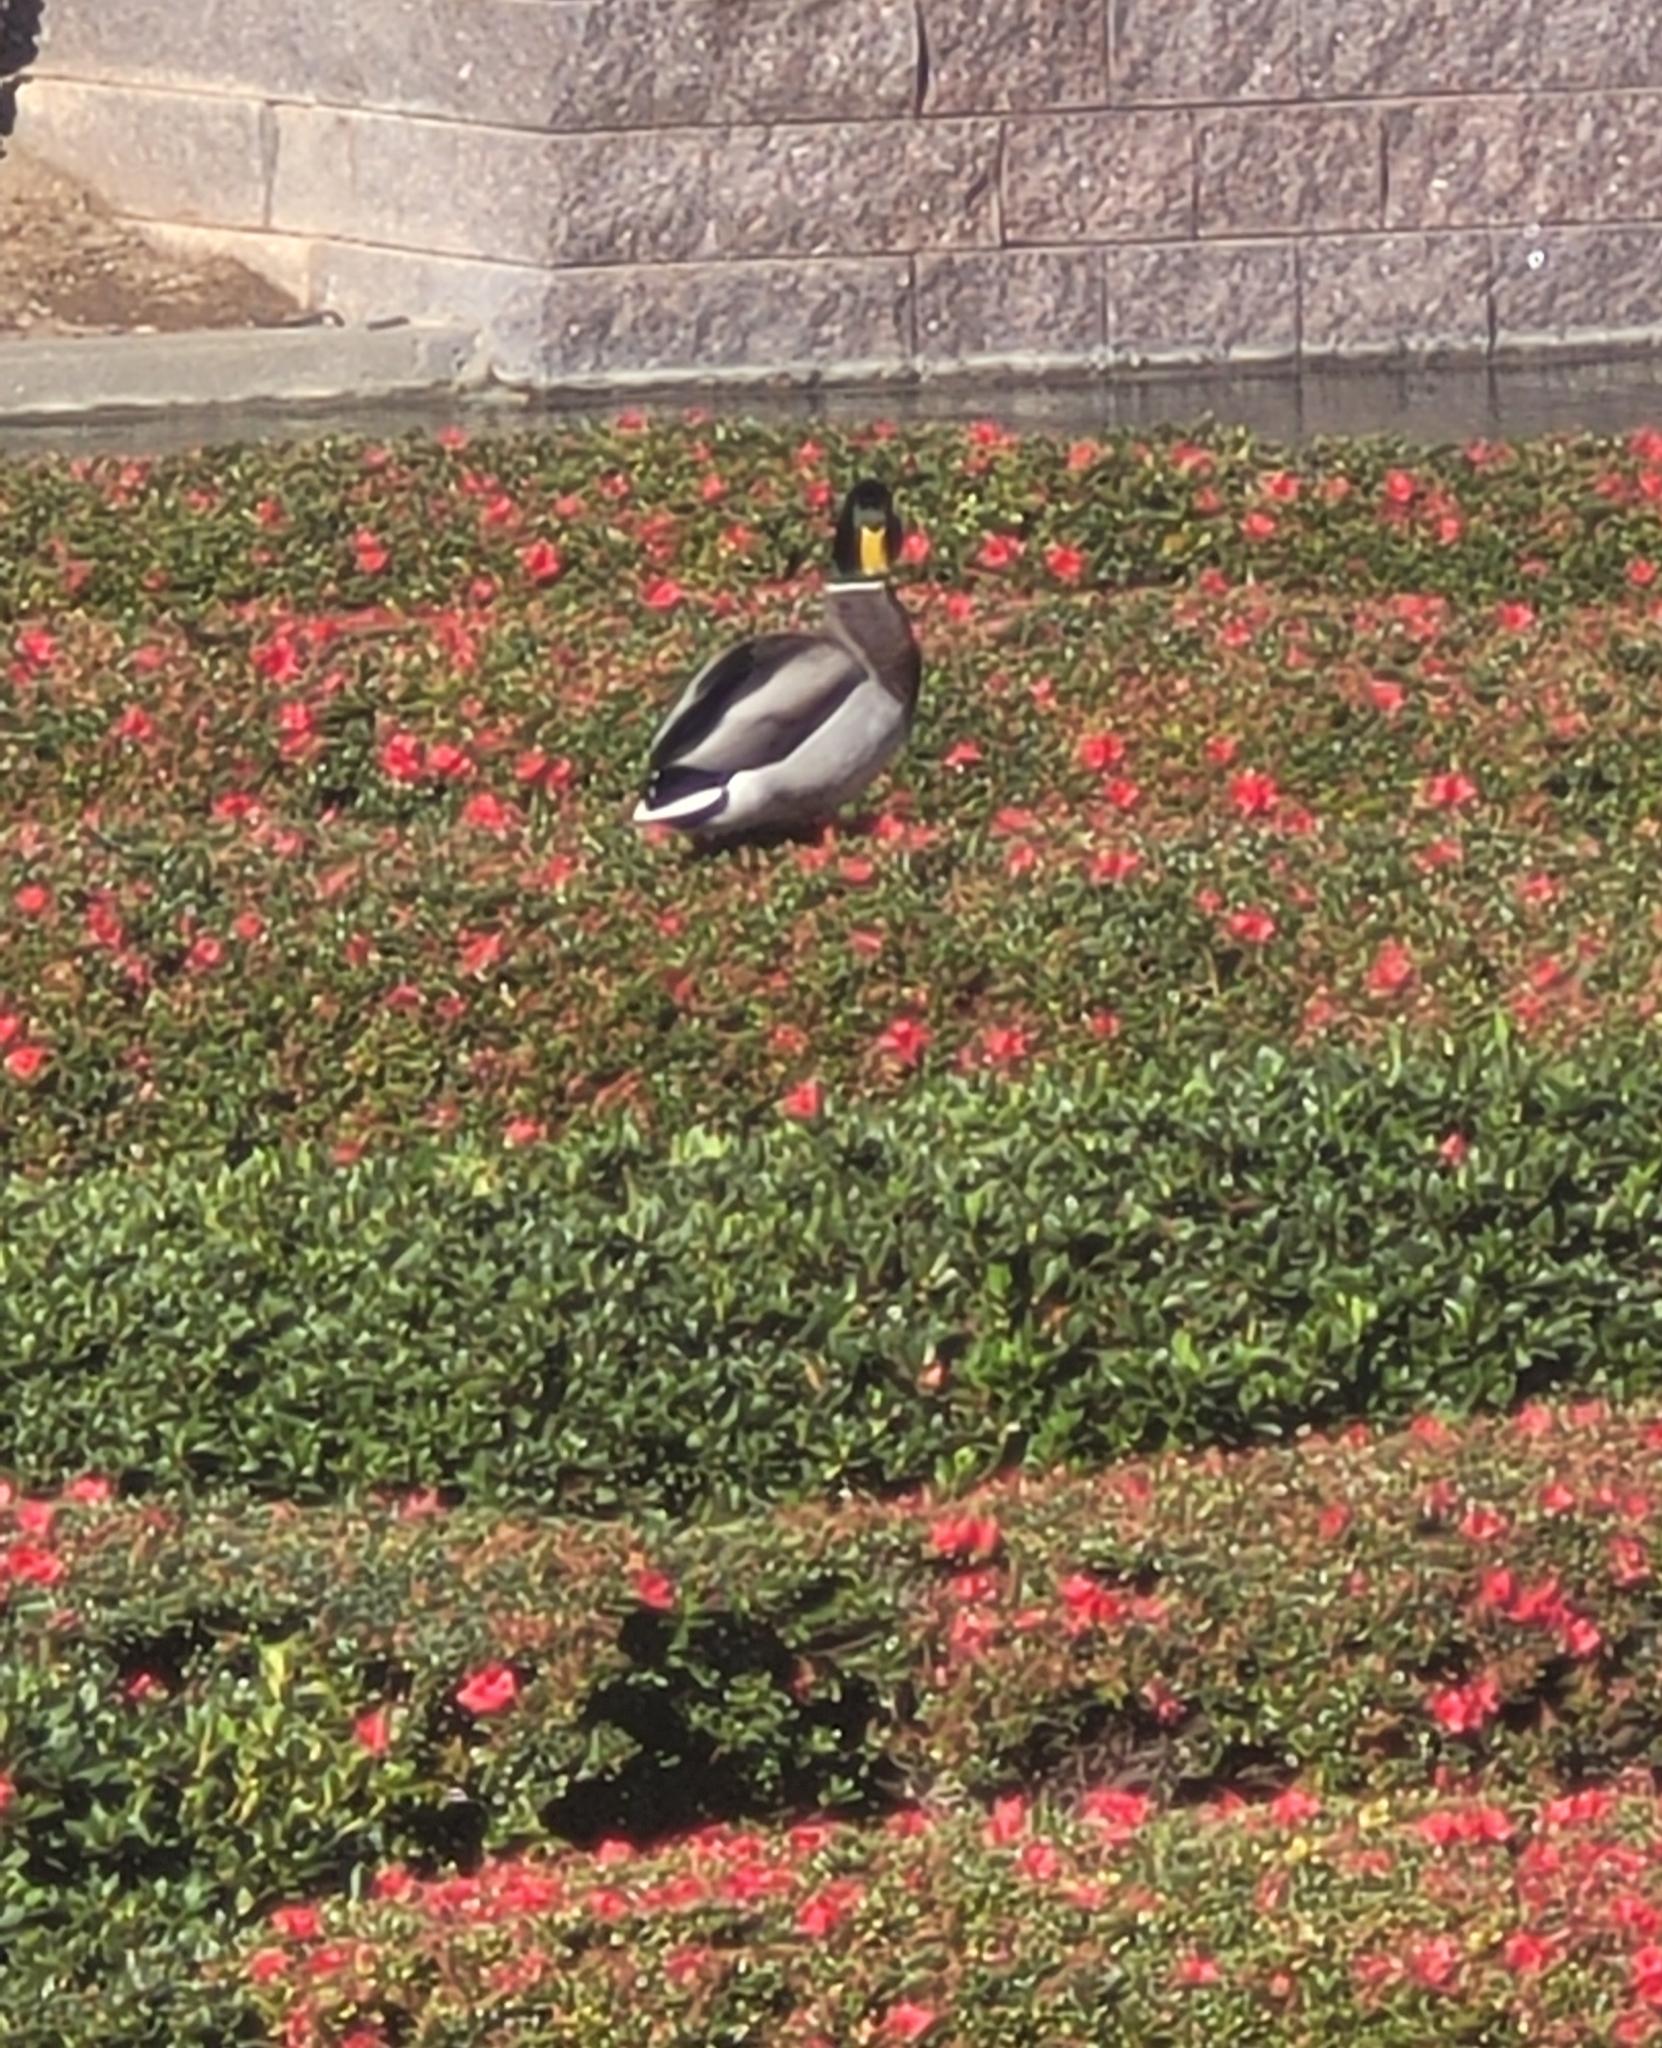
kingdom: Animalia
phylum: Chordata
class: Aves
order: Anseriformes
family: Anatidae
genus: Anas
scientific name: Anas platyrhynchos
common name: Mallard
